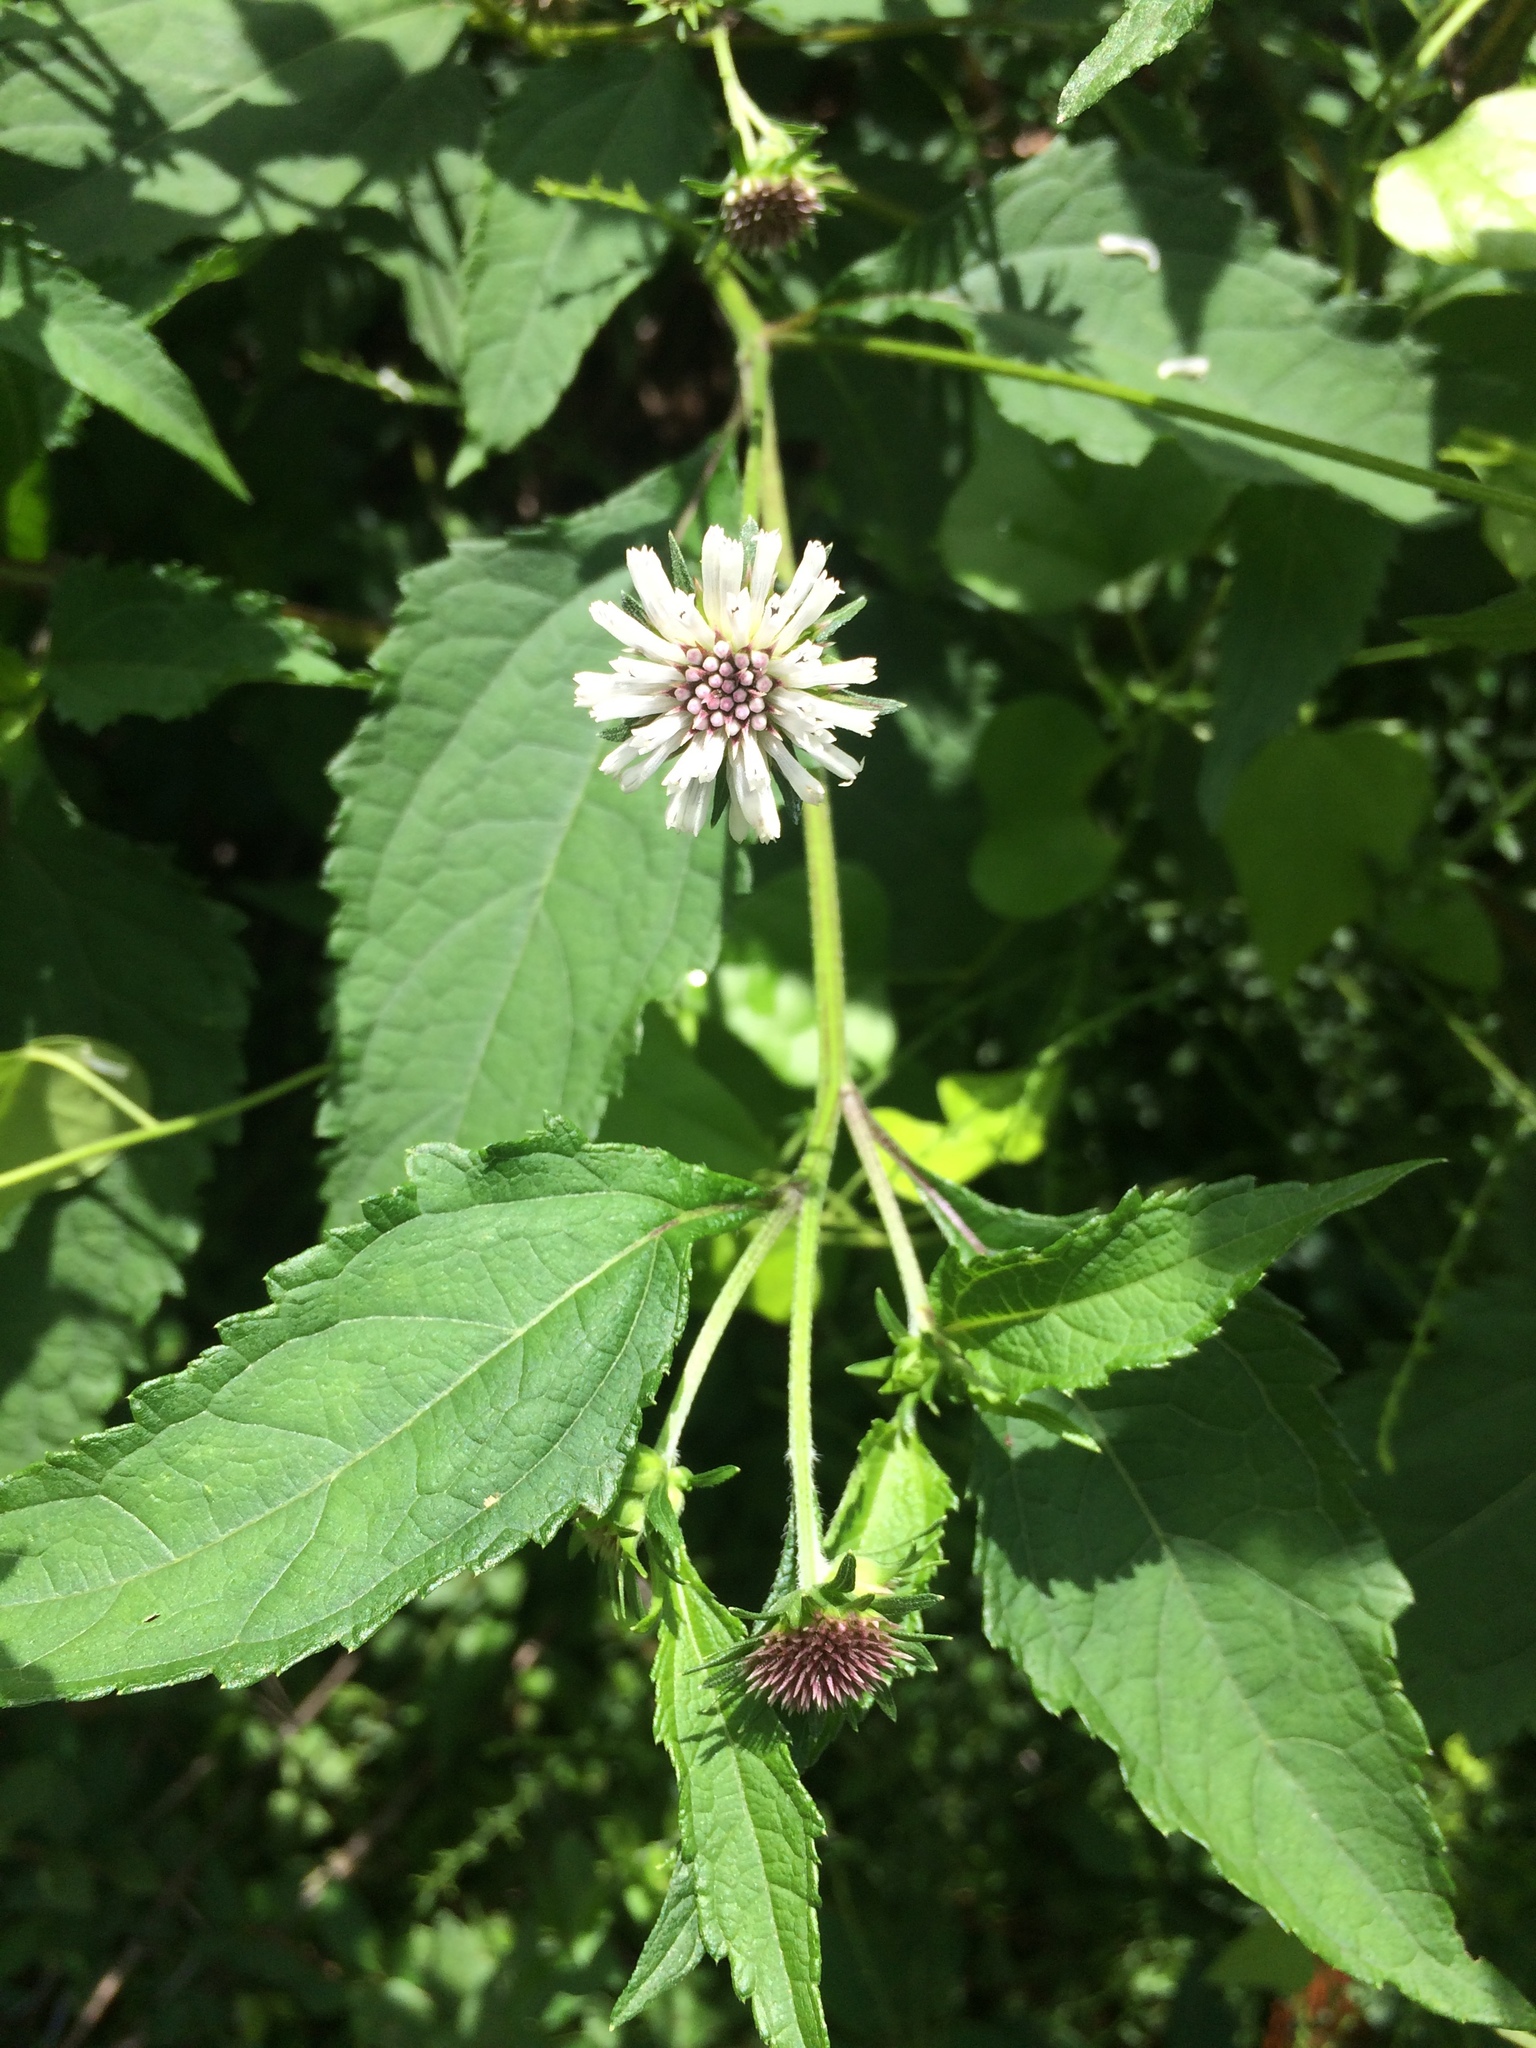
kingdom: Plantae
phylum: Tracheophyta
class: Magnoliopsida
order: Asterales
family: Asteraceae
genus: Melanthera
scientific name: Melanthera nivea
